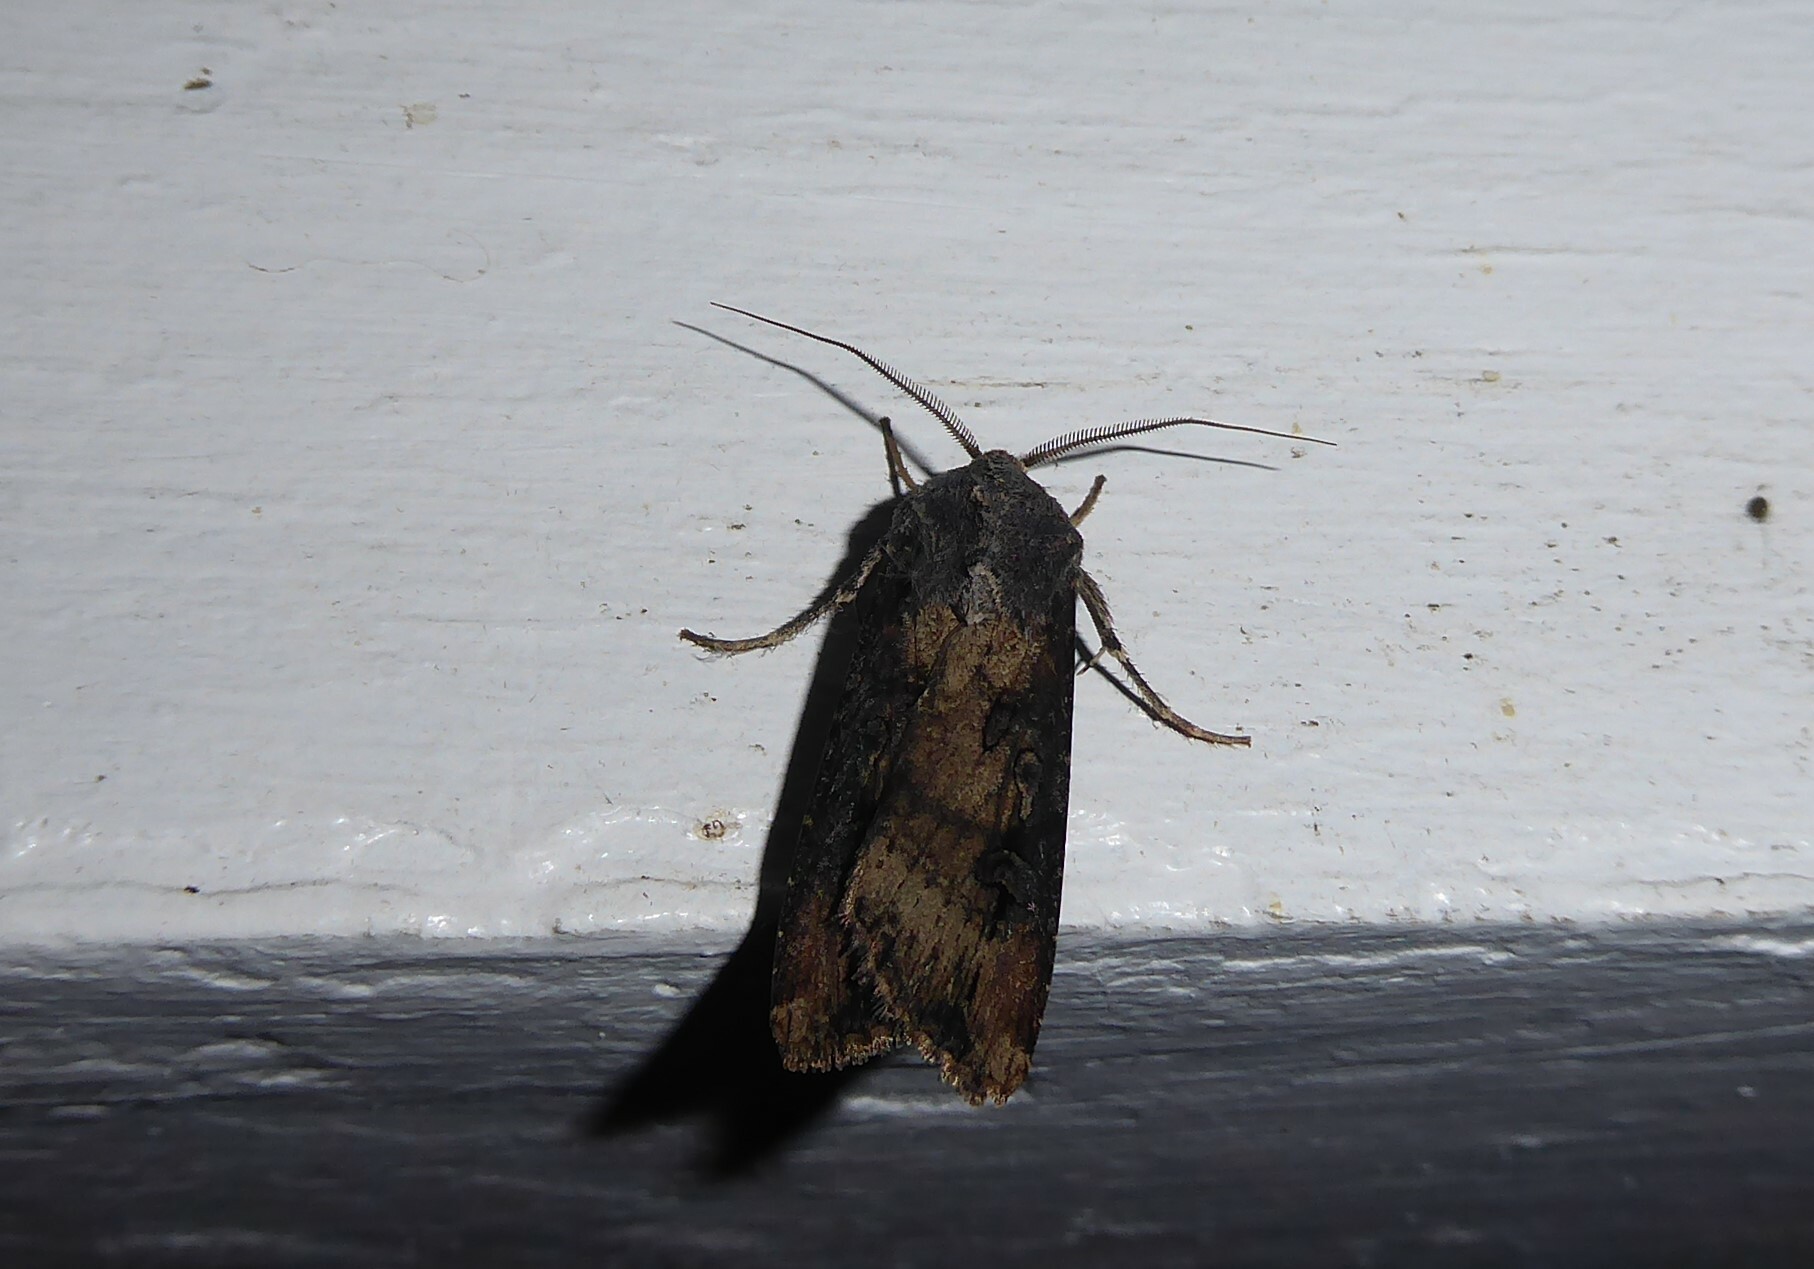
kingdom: Animalia
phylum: Arthropoda
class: Insecta
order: Lepidoptera
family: Noctuidae
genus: Agrotis
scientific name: Agrotis ipsilon
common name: Dark sword-grass
